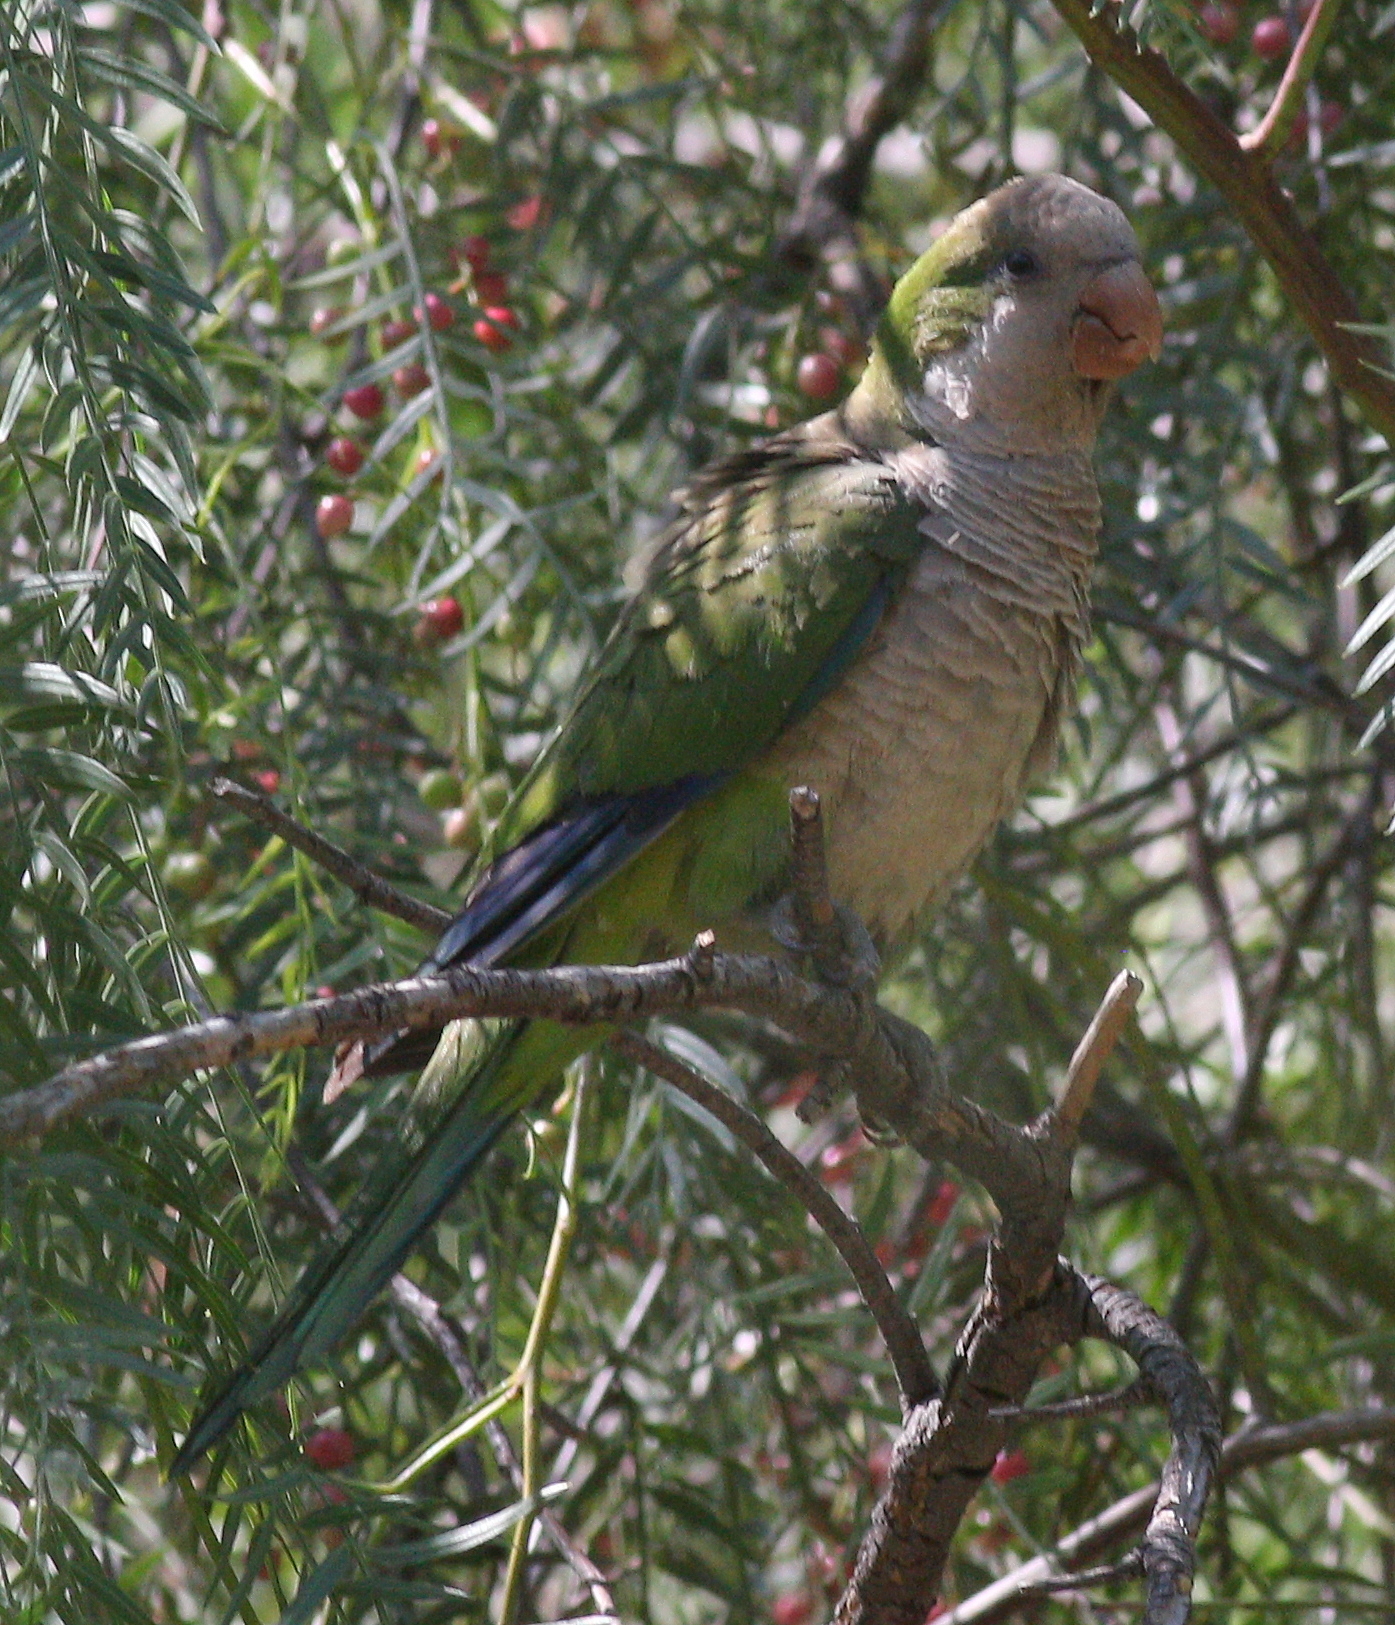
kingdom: Animalia
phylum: Chordata
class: Aves
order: Psittaciformes
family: Psittacidae
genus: Myiopsitta
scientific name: Myiopsitta monachus
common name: Monk parakeet
